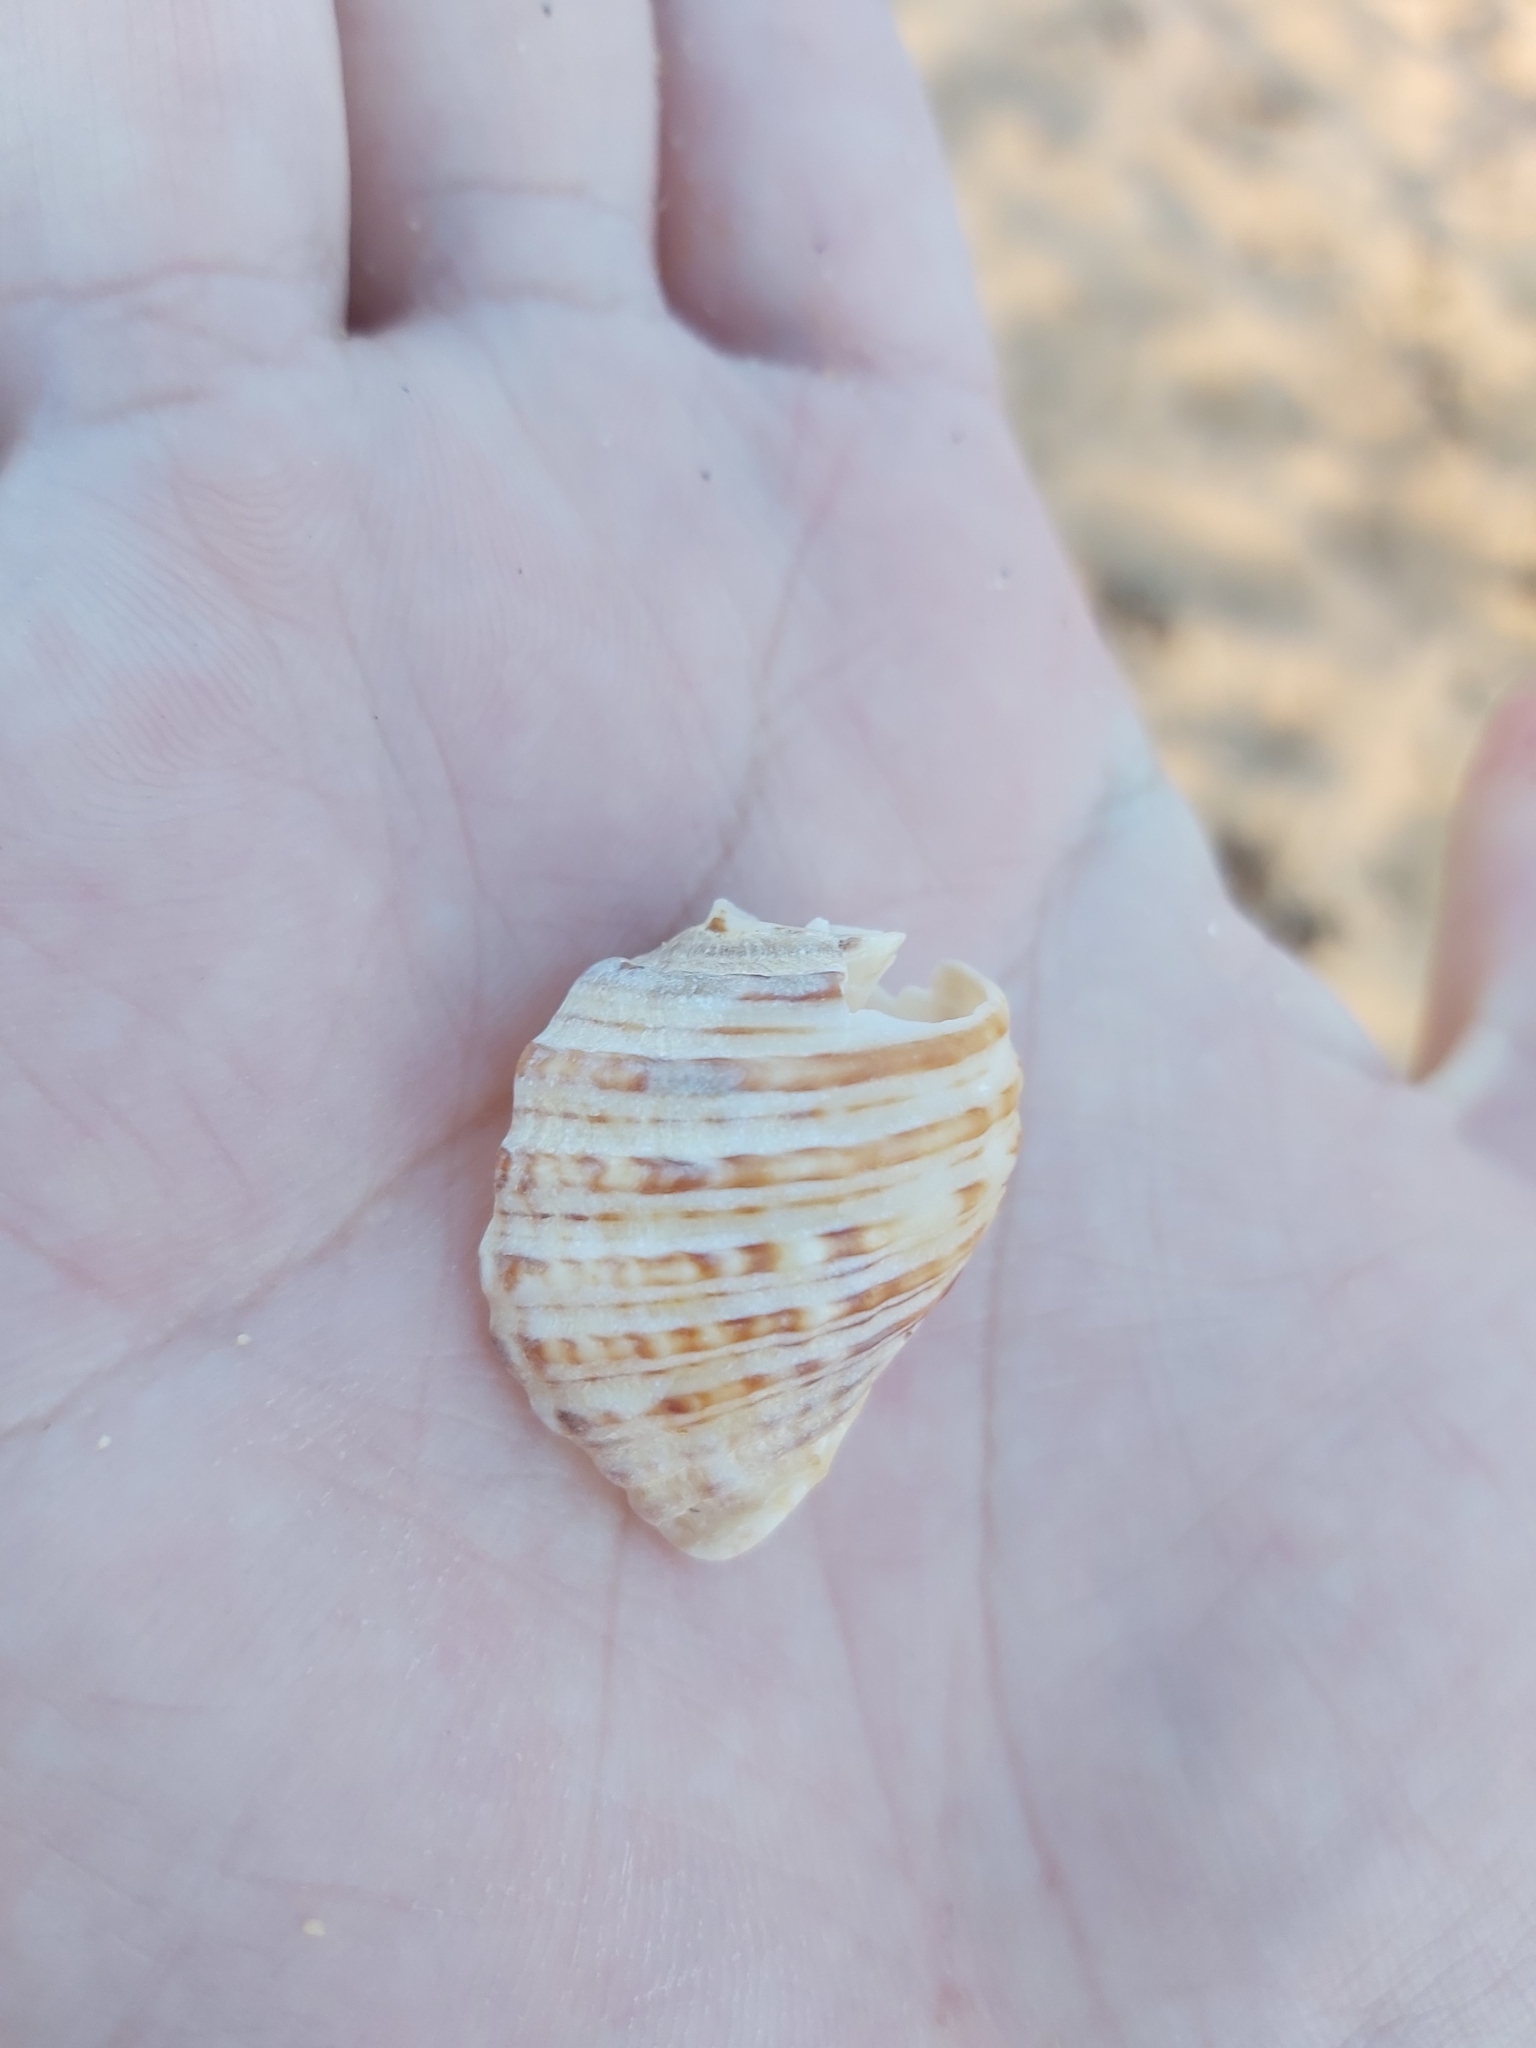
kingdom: Animalia
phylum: Mollusca
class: Gastropoda
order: Neogastropoda
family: Muricidae
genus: Dicathais
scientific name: Dicathais orbita
